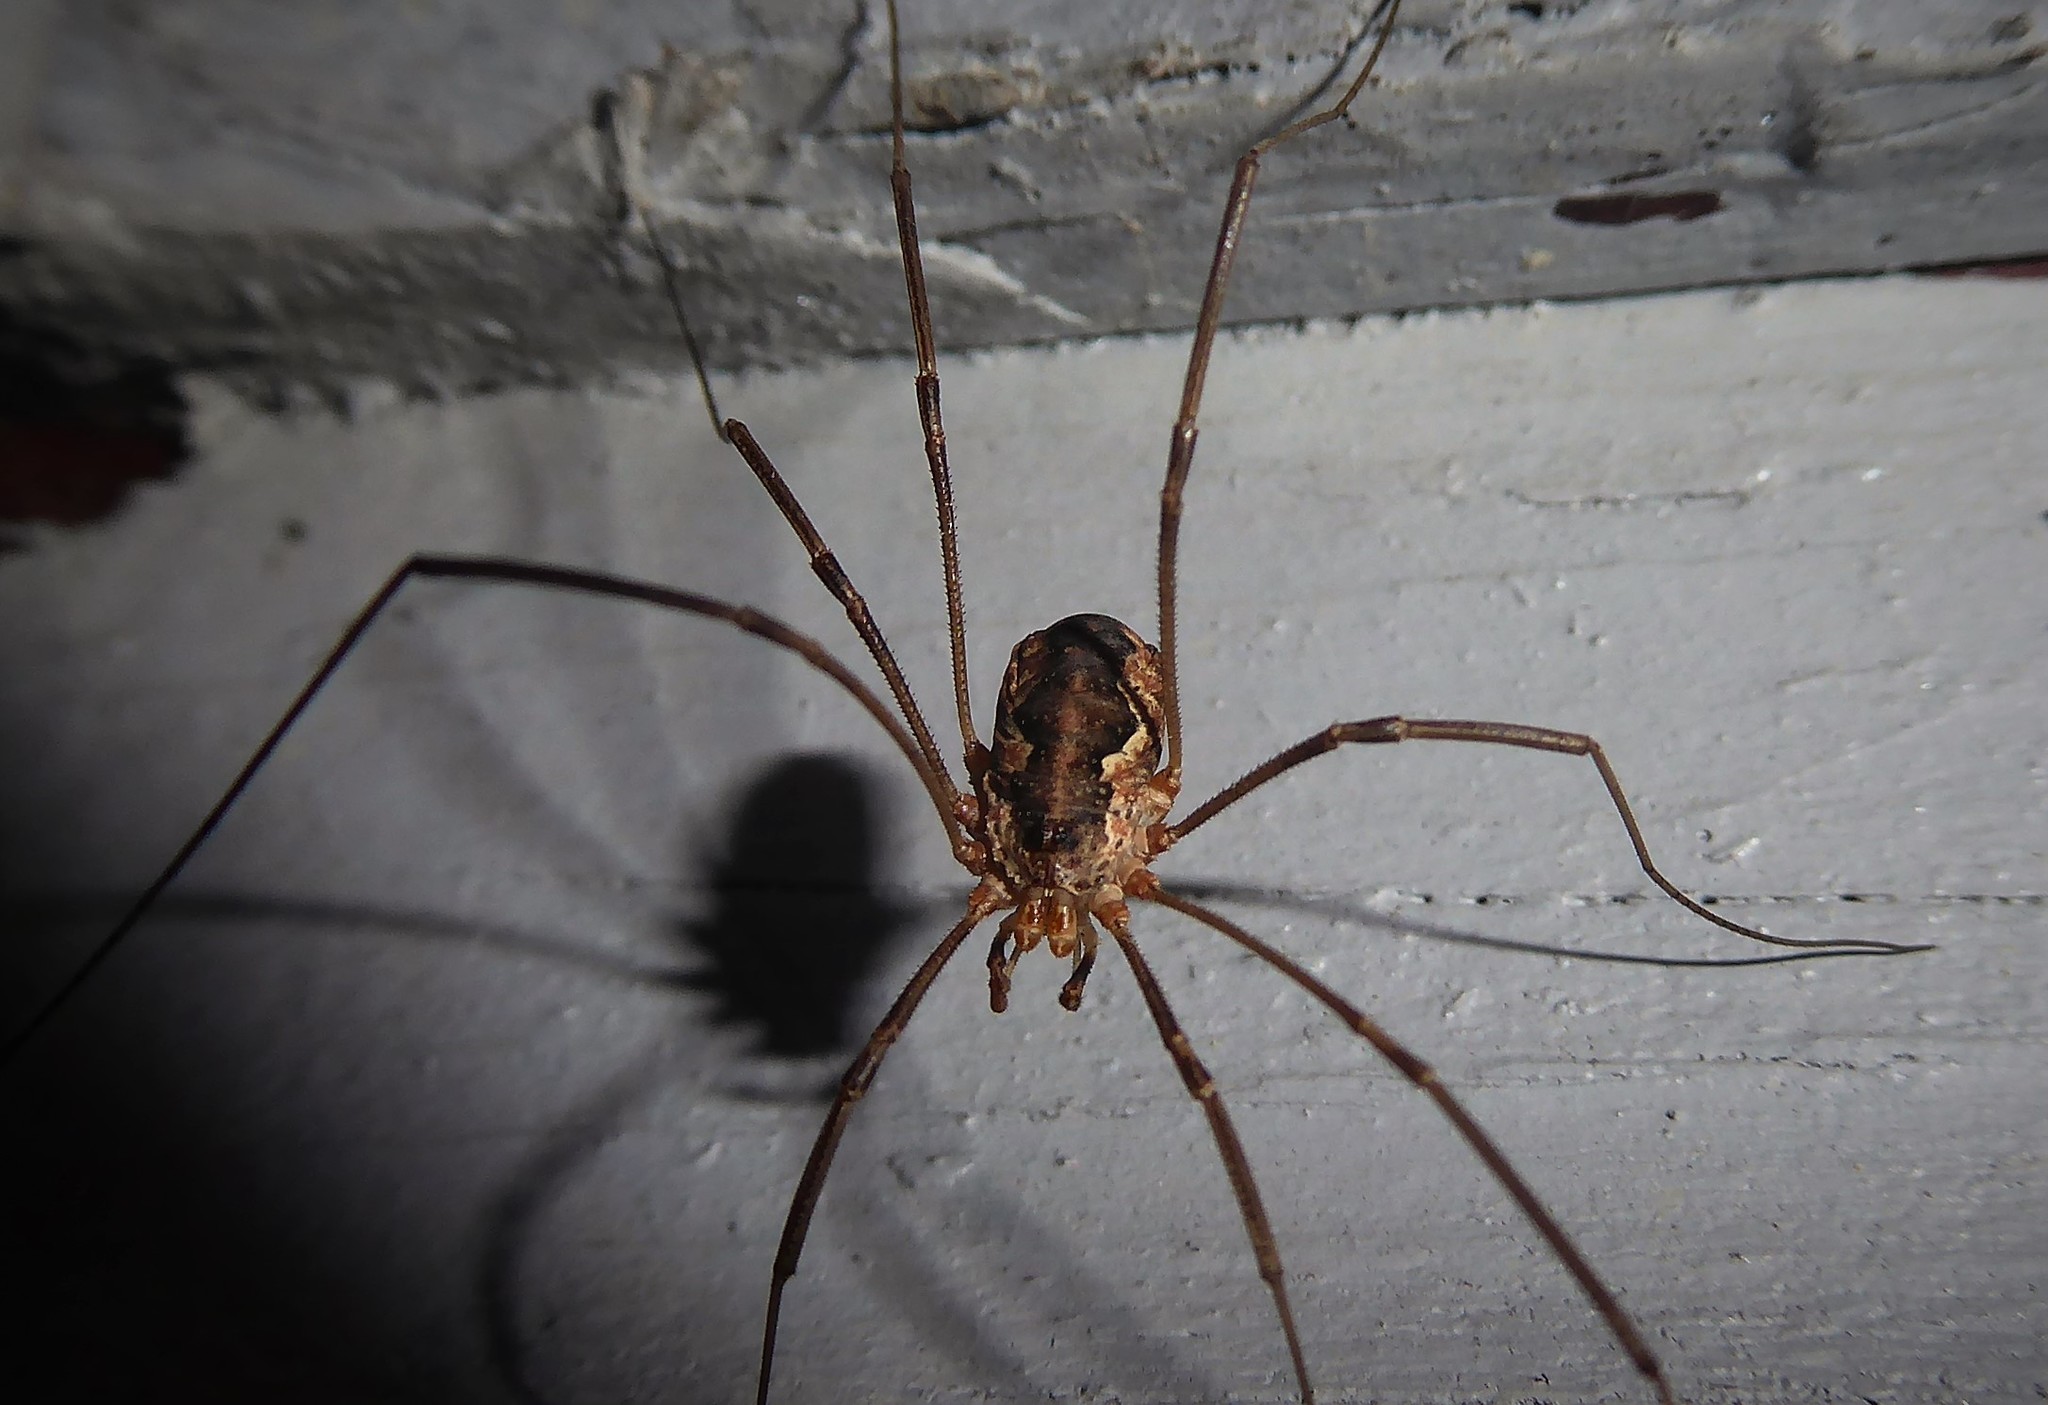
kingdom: Animalia
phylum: Arthropoda
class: Arachnida
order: Opiliones
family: Phalangiidae
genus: Phalangium
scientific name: Phalangium opilio
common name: Daddy longleg
